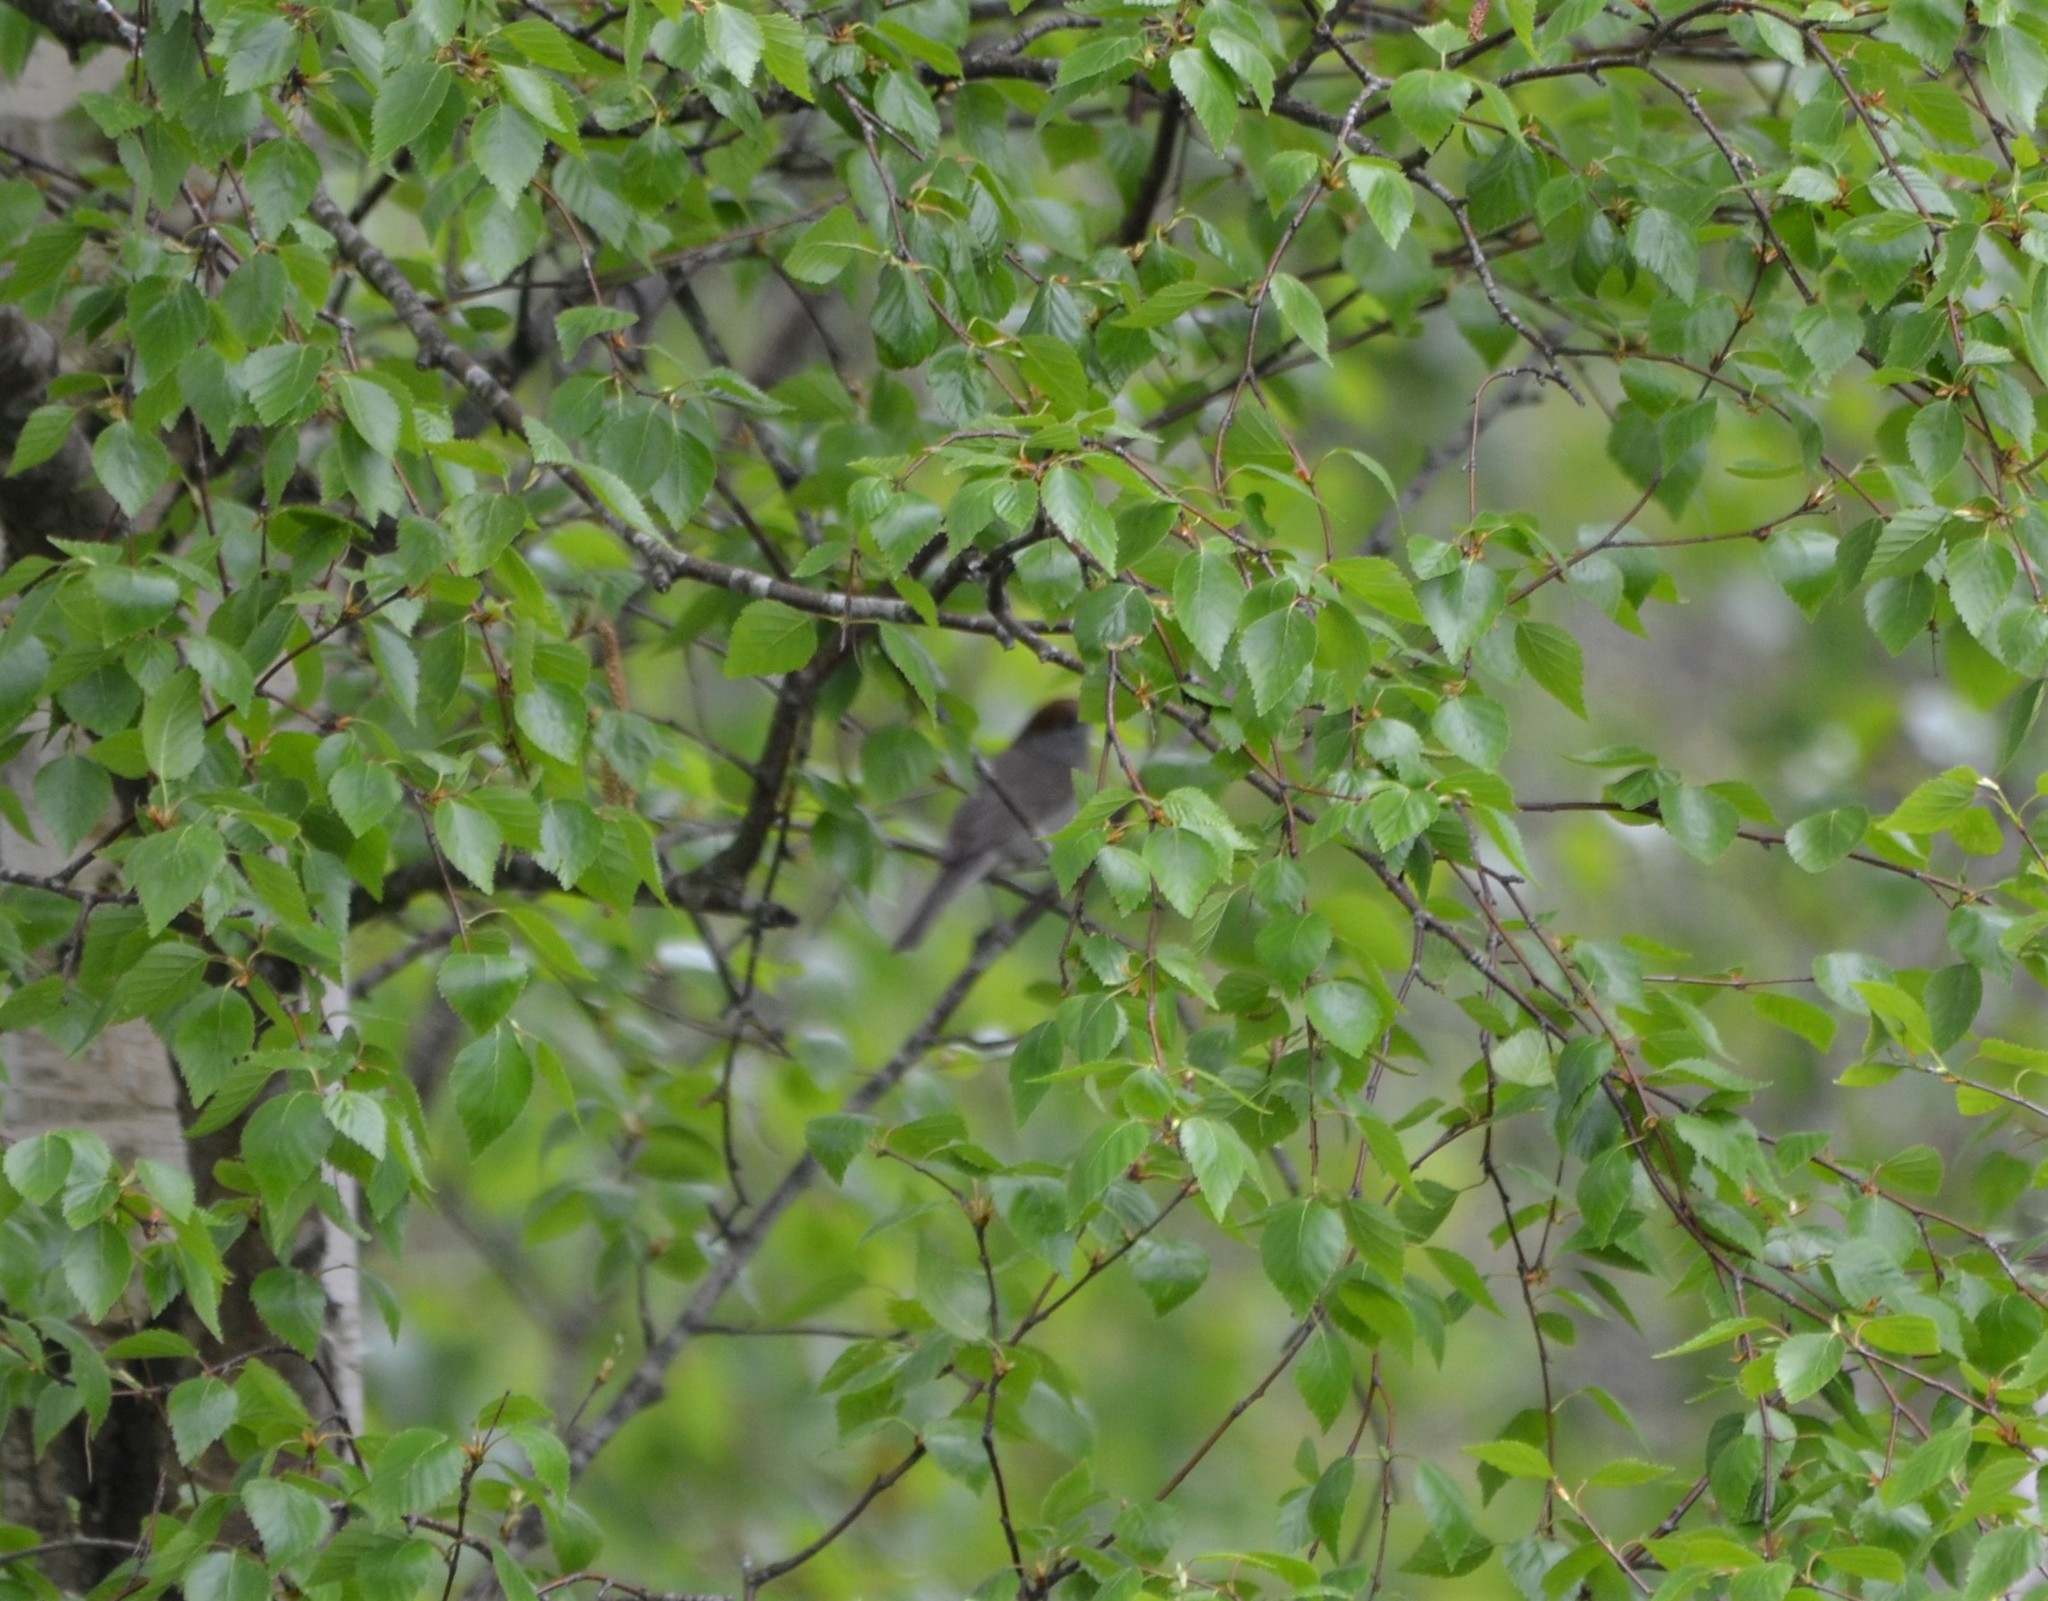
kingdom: Animalia
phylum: Chordata
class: Aves
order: Passeriformes
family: Sylviidae
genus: Sylvia
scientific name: Sylvia atricapilla
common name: Eurasian blackcap
